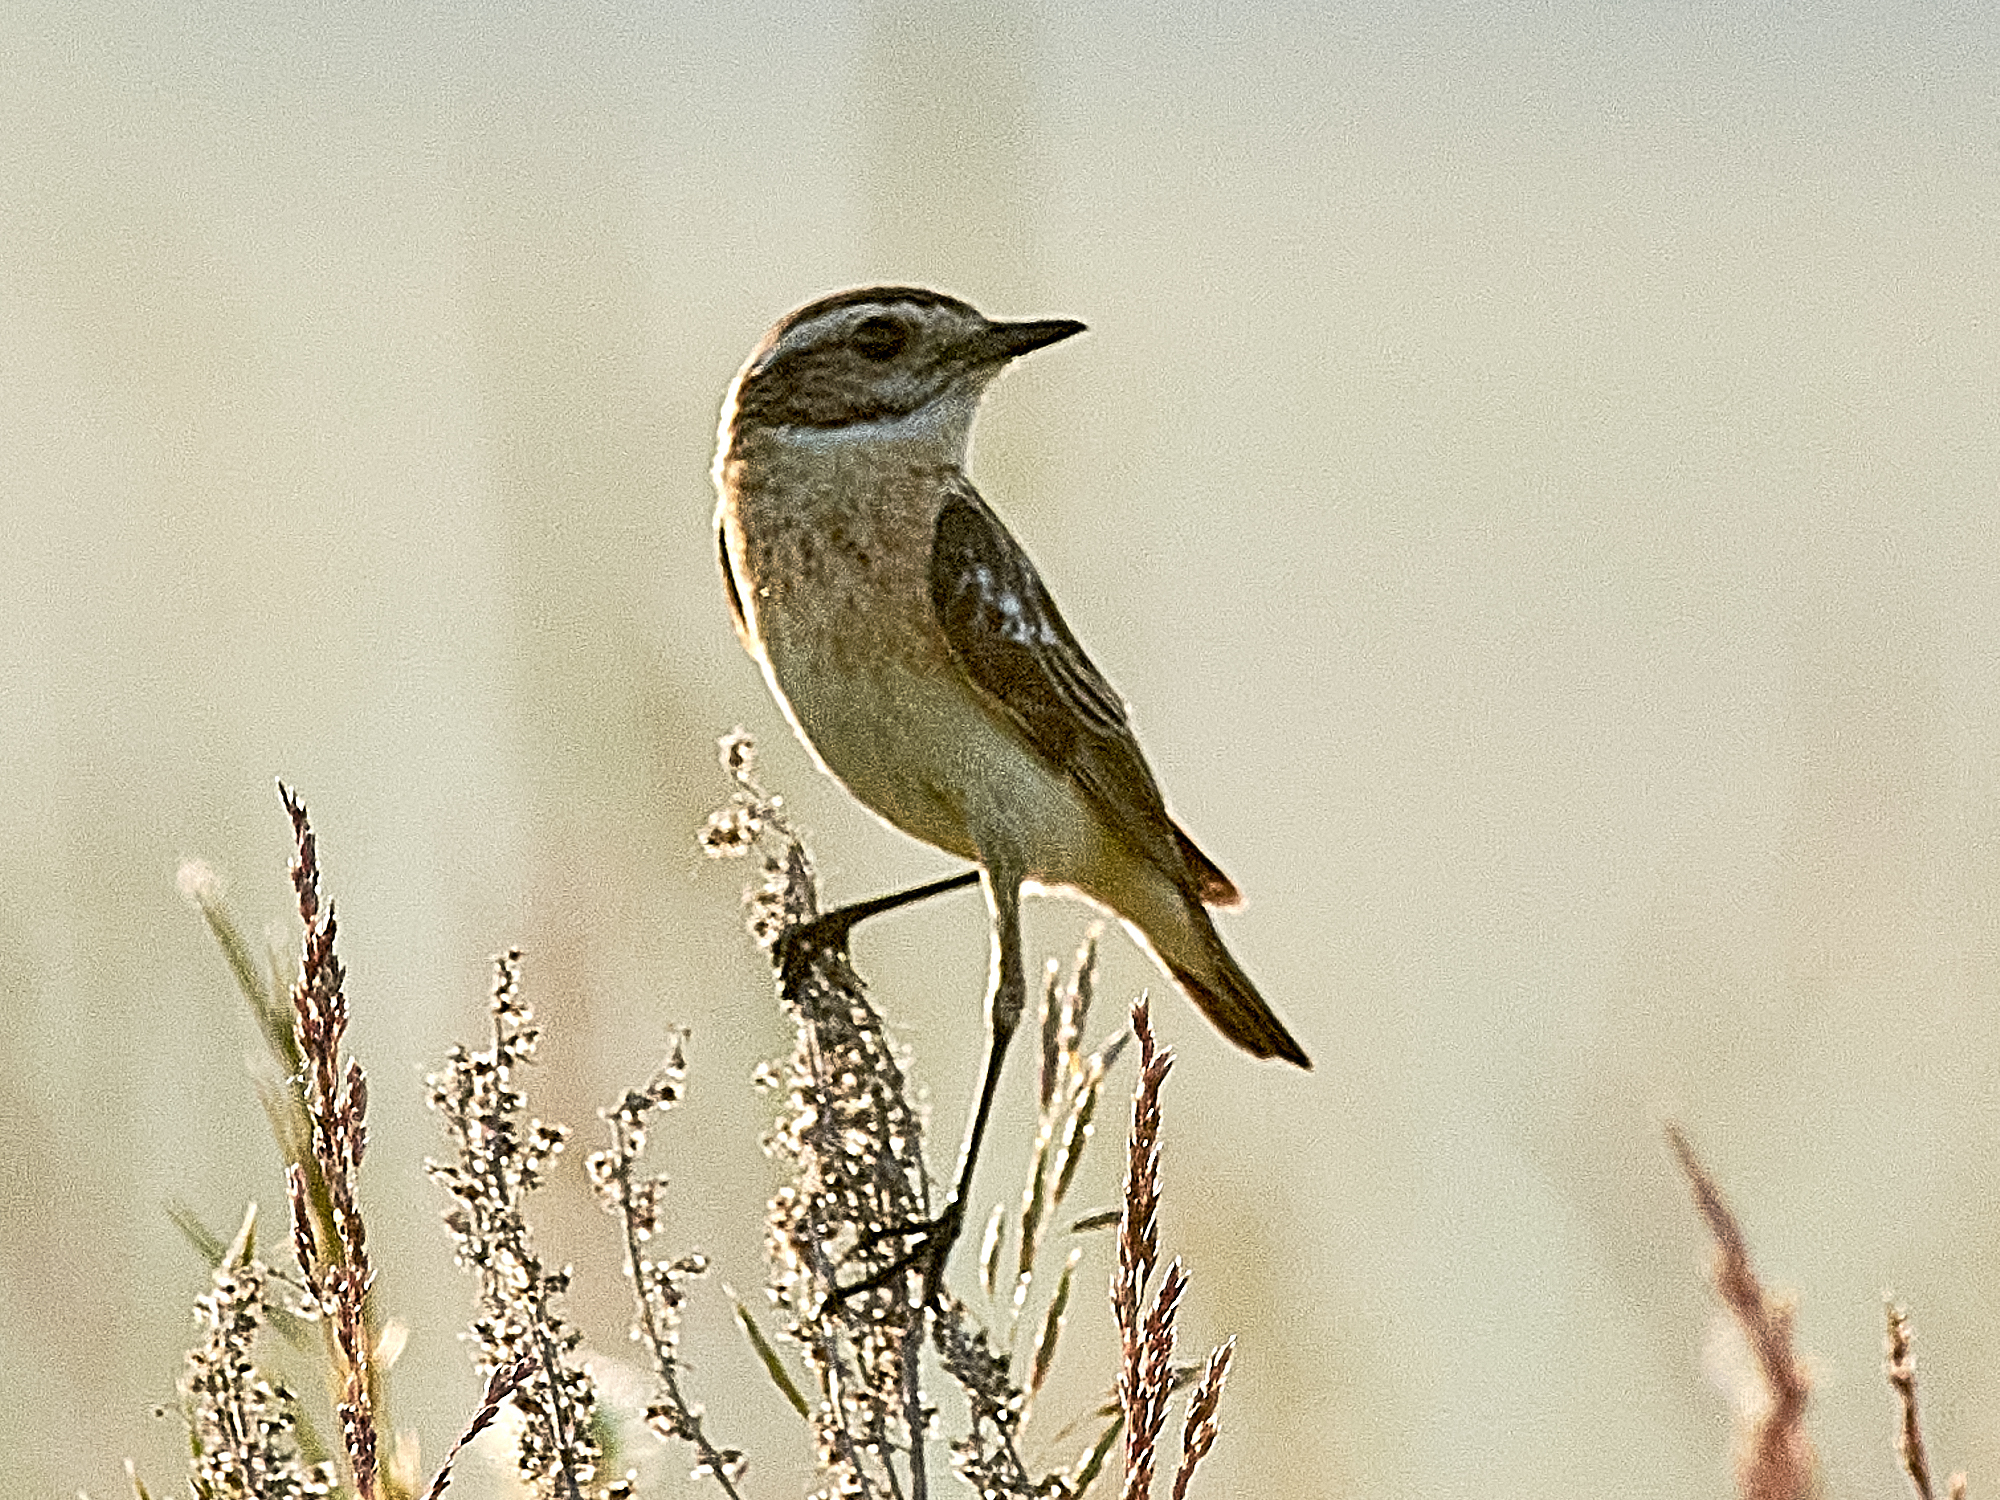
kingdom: Animalia
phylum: Chordata
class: Aves
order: Passeriformes
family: Muscicapidae
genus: Saxicola
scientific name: Saxicola rubetra
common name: Whinchat
